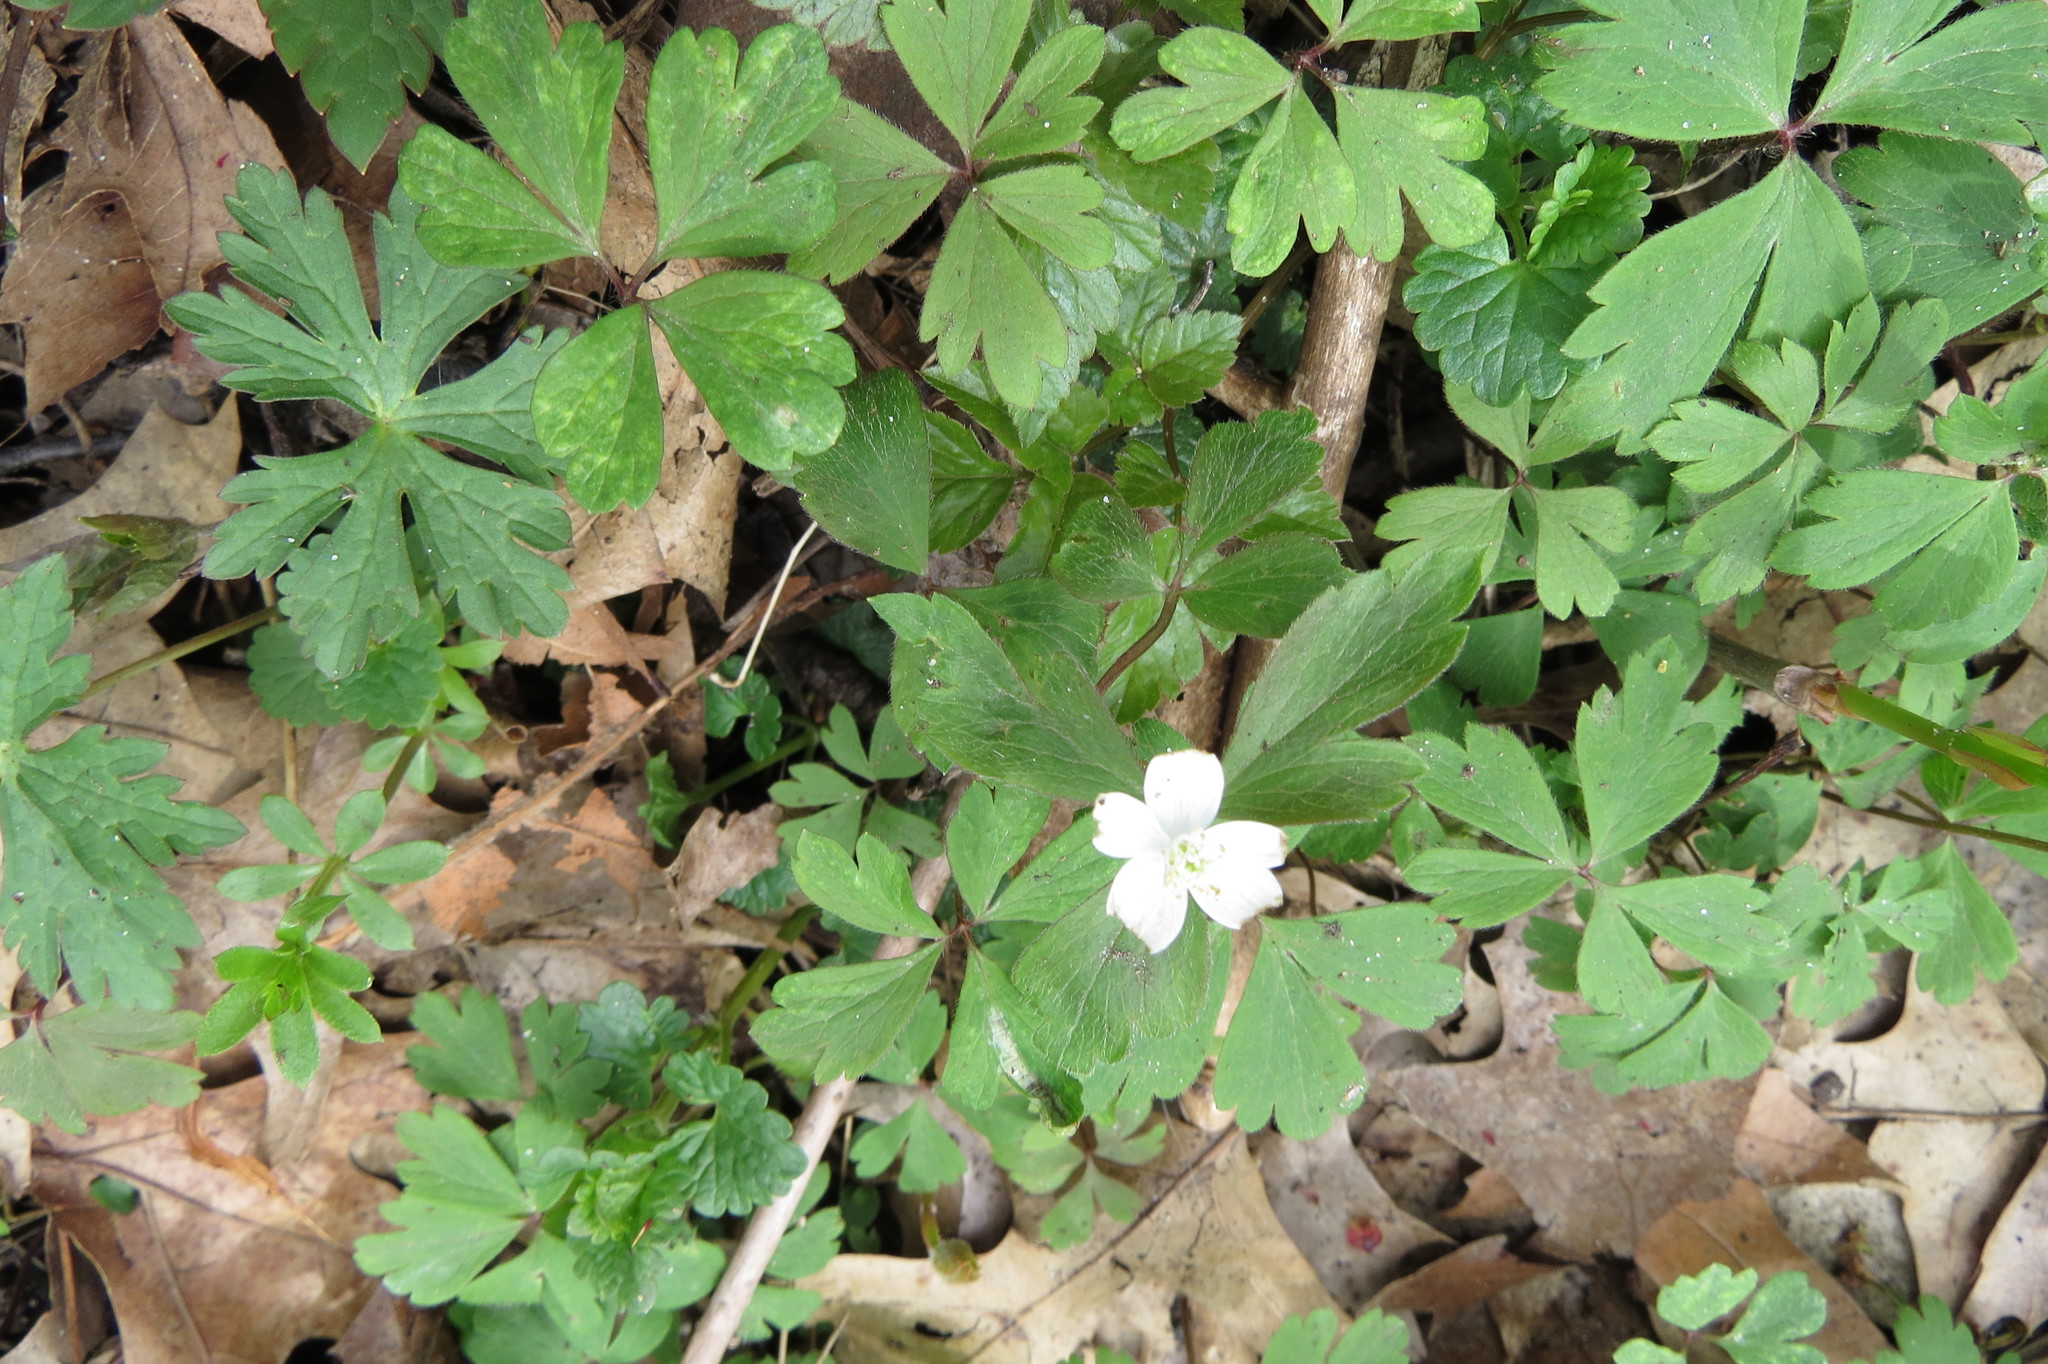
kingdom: Plantae
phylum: Tracheophyta
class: Magnoliopsida
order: Ranunculales
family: Ranunculaceae
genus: Anemone
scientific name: Anemone quinquefolia
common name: Wood anemone
